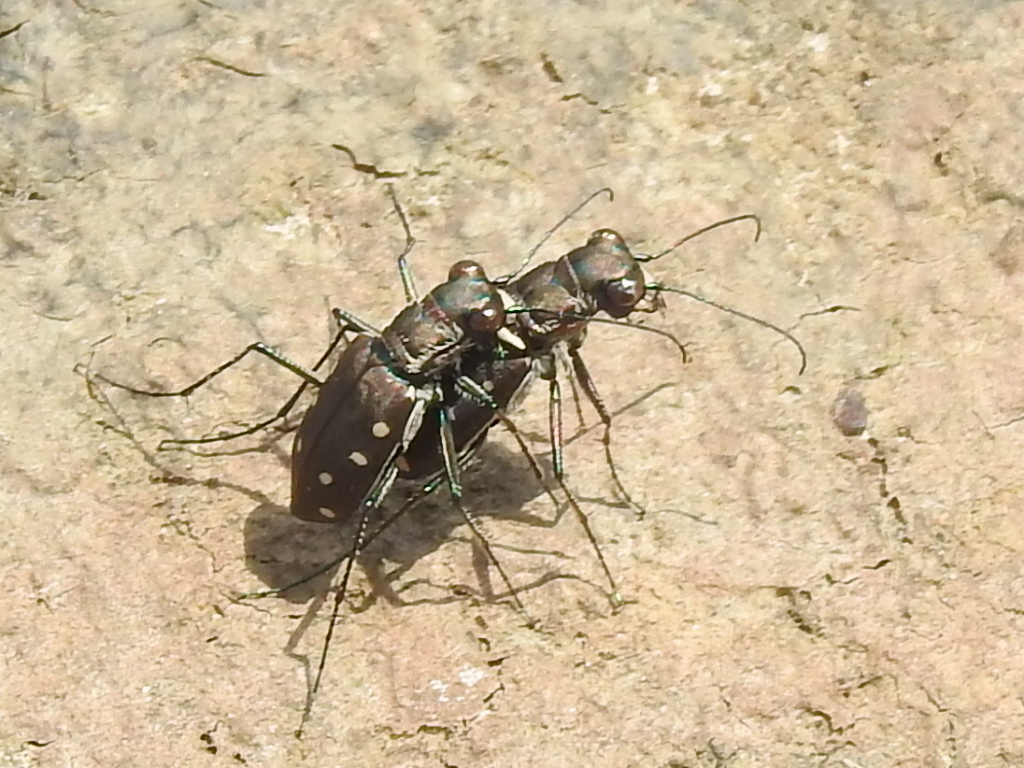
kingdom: Animalia
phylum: Arthropoda
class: Insecta
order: Coleoptera
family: Carabidae
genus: Cicindela
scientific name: Cicindela ocellata
